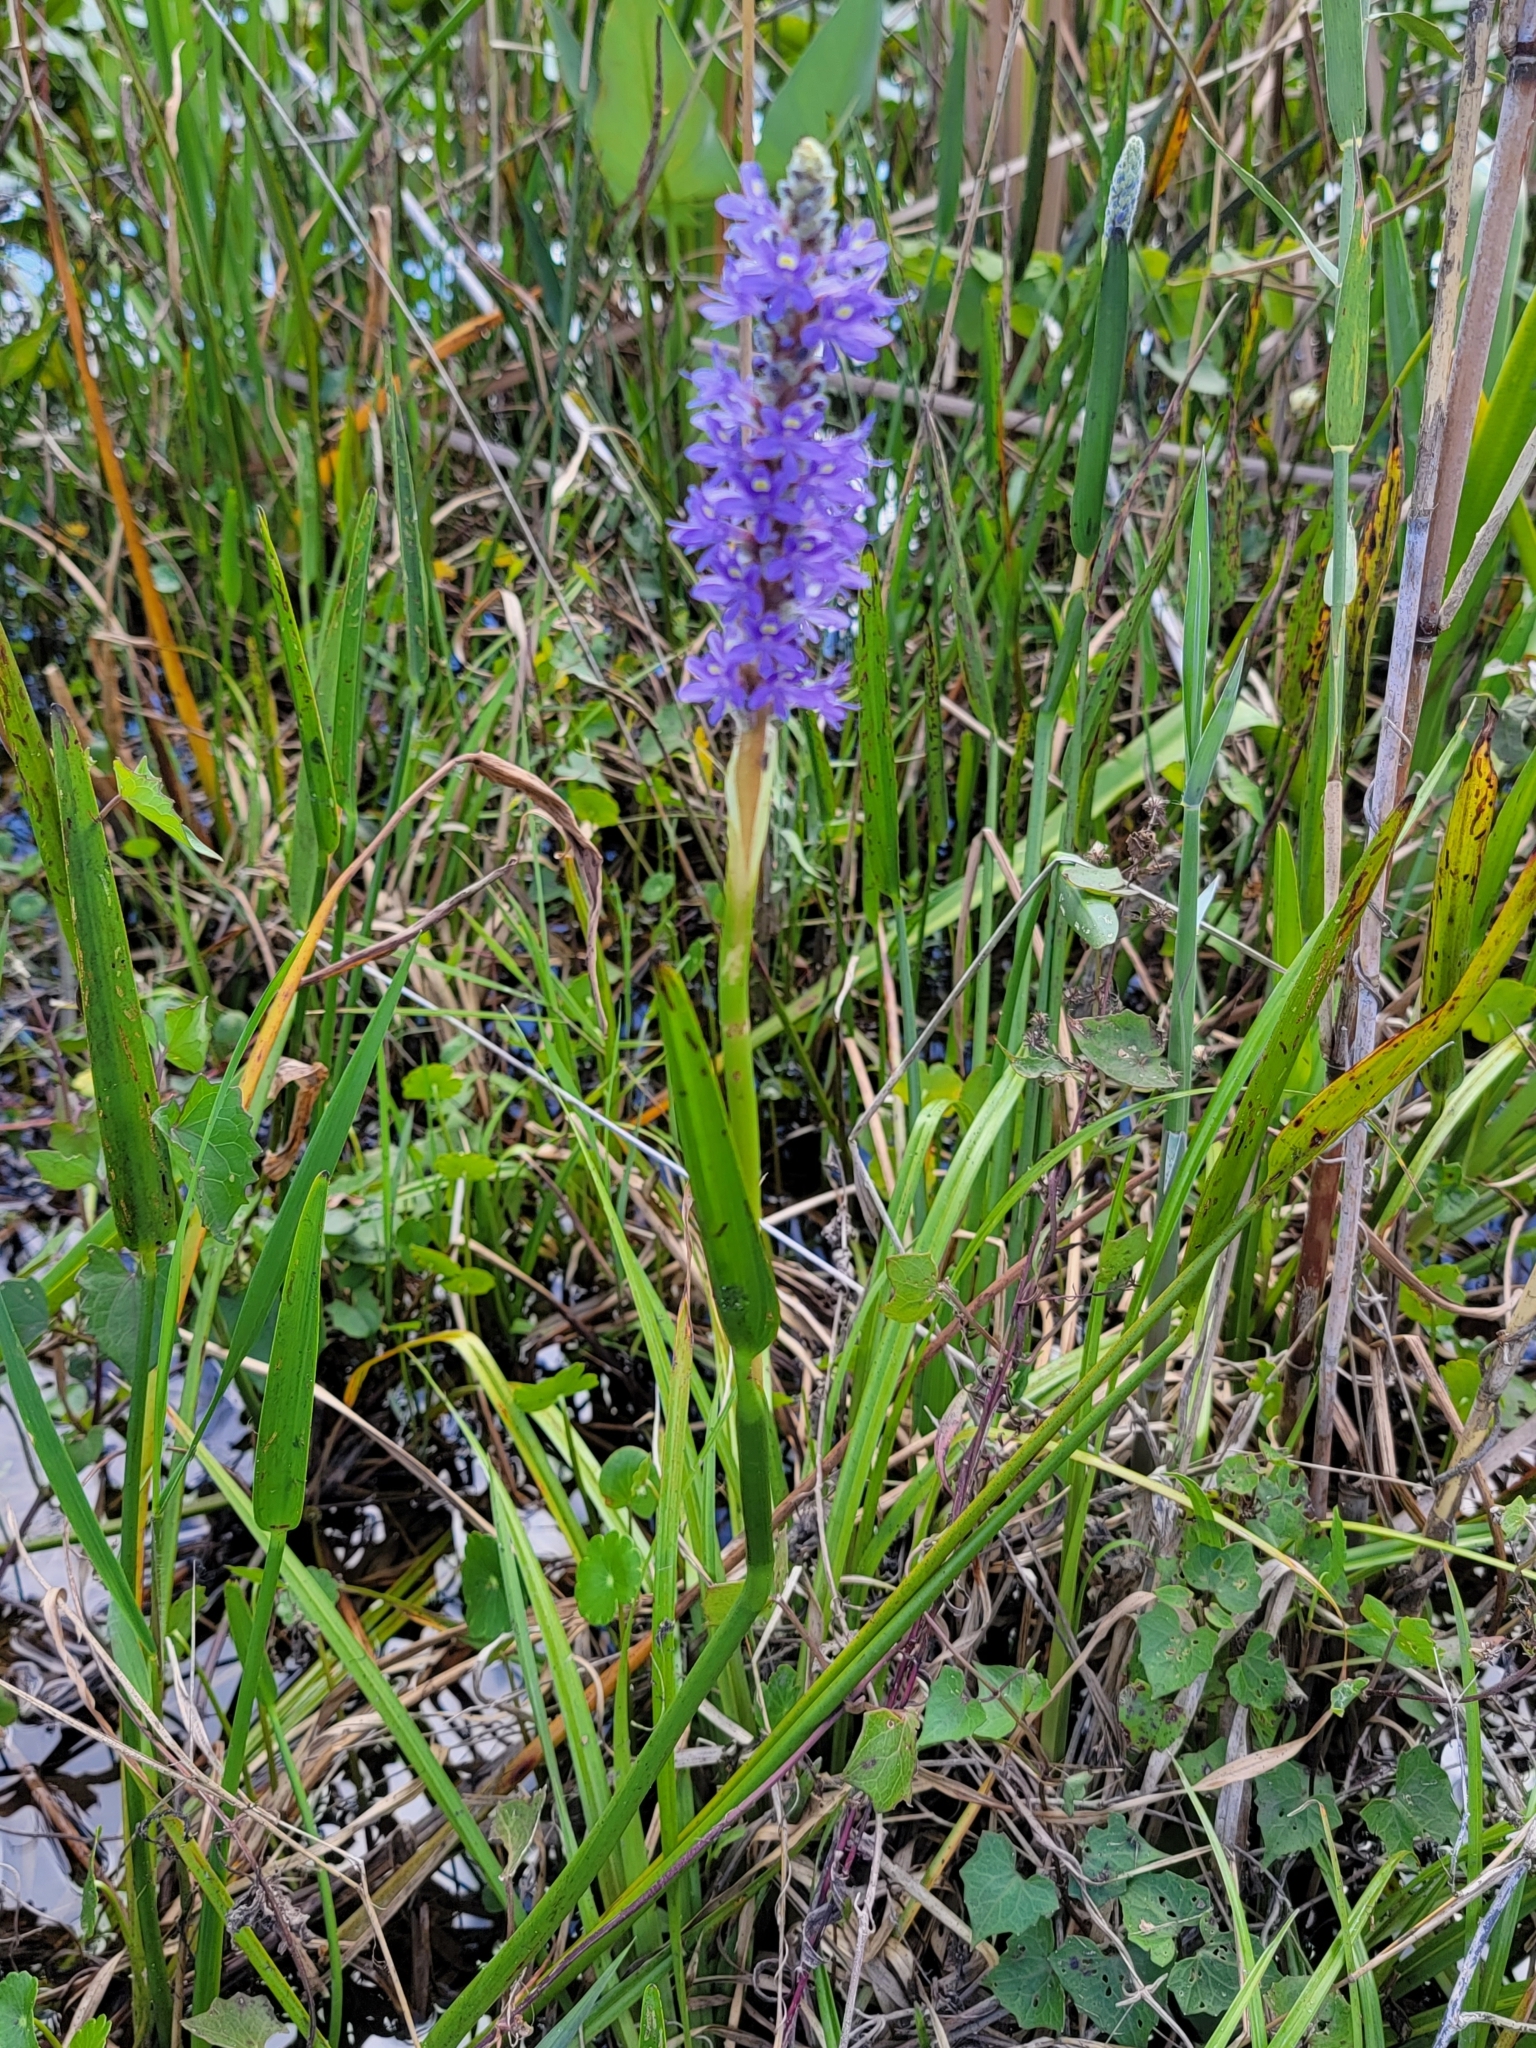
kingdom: Plantae
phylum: Tracheophyta
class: Liliopsida
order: Commelinales
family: Pontederiaceae
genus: Pontederia
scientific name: Pontederia cordata
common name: Pickerelweed
